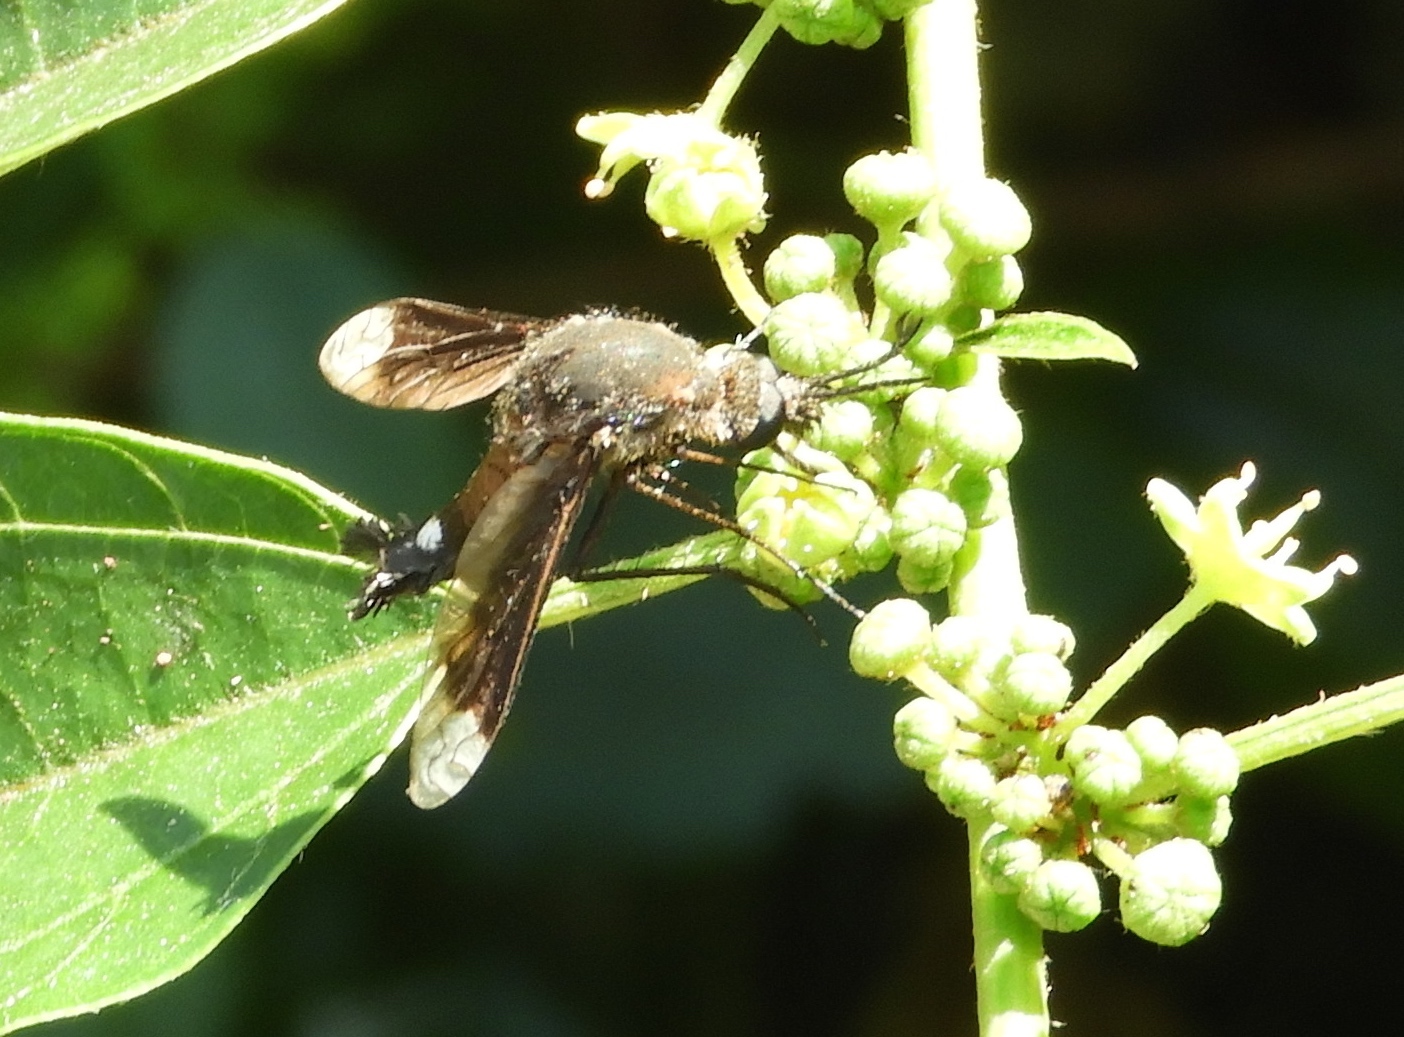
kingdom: Animalia
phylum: Arthropoda
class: Insecta
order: Diptera
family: Bombyliidae
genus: Lepidophora
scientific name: Lepidophora vetusta
